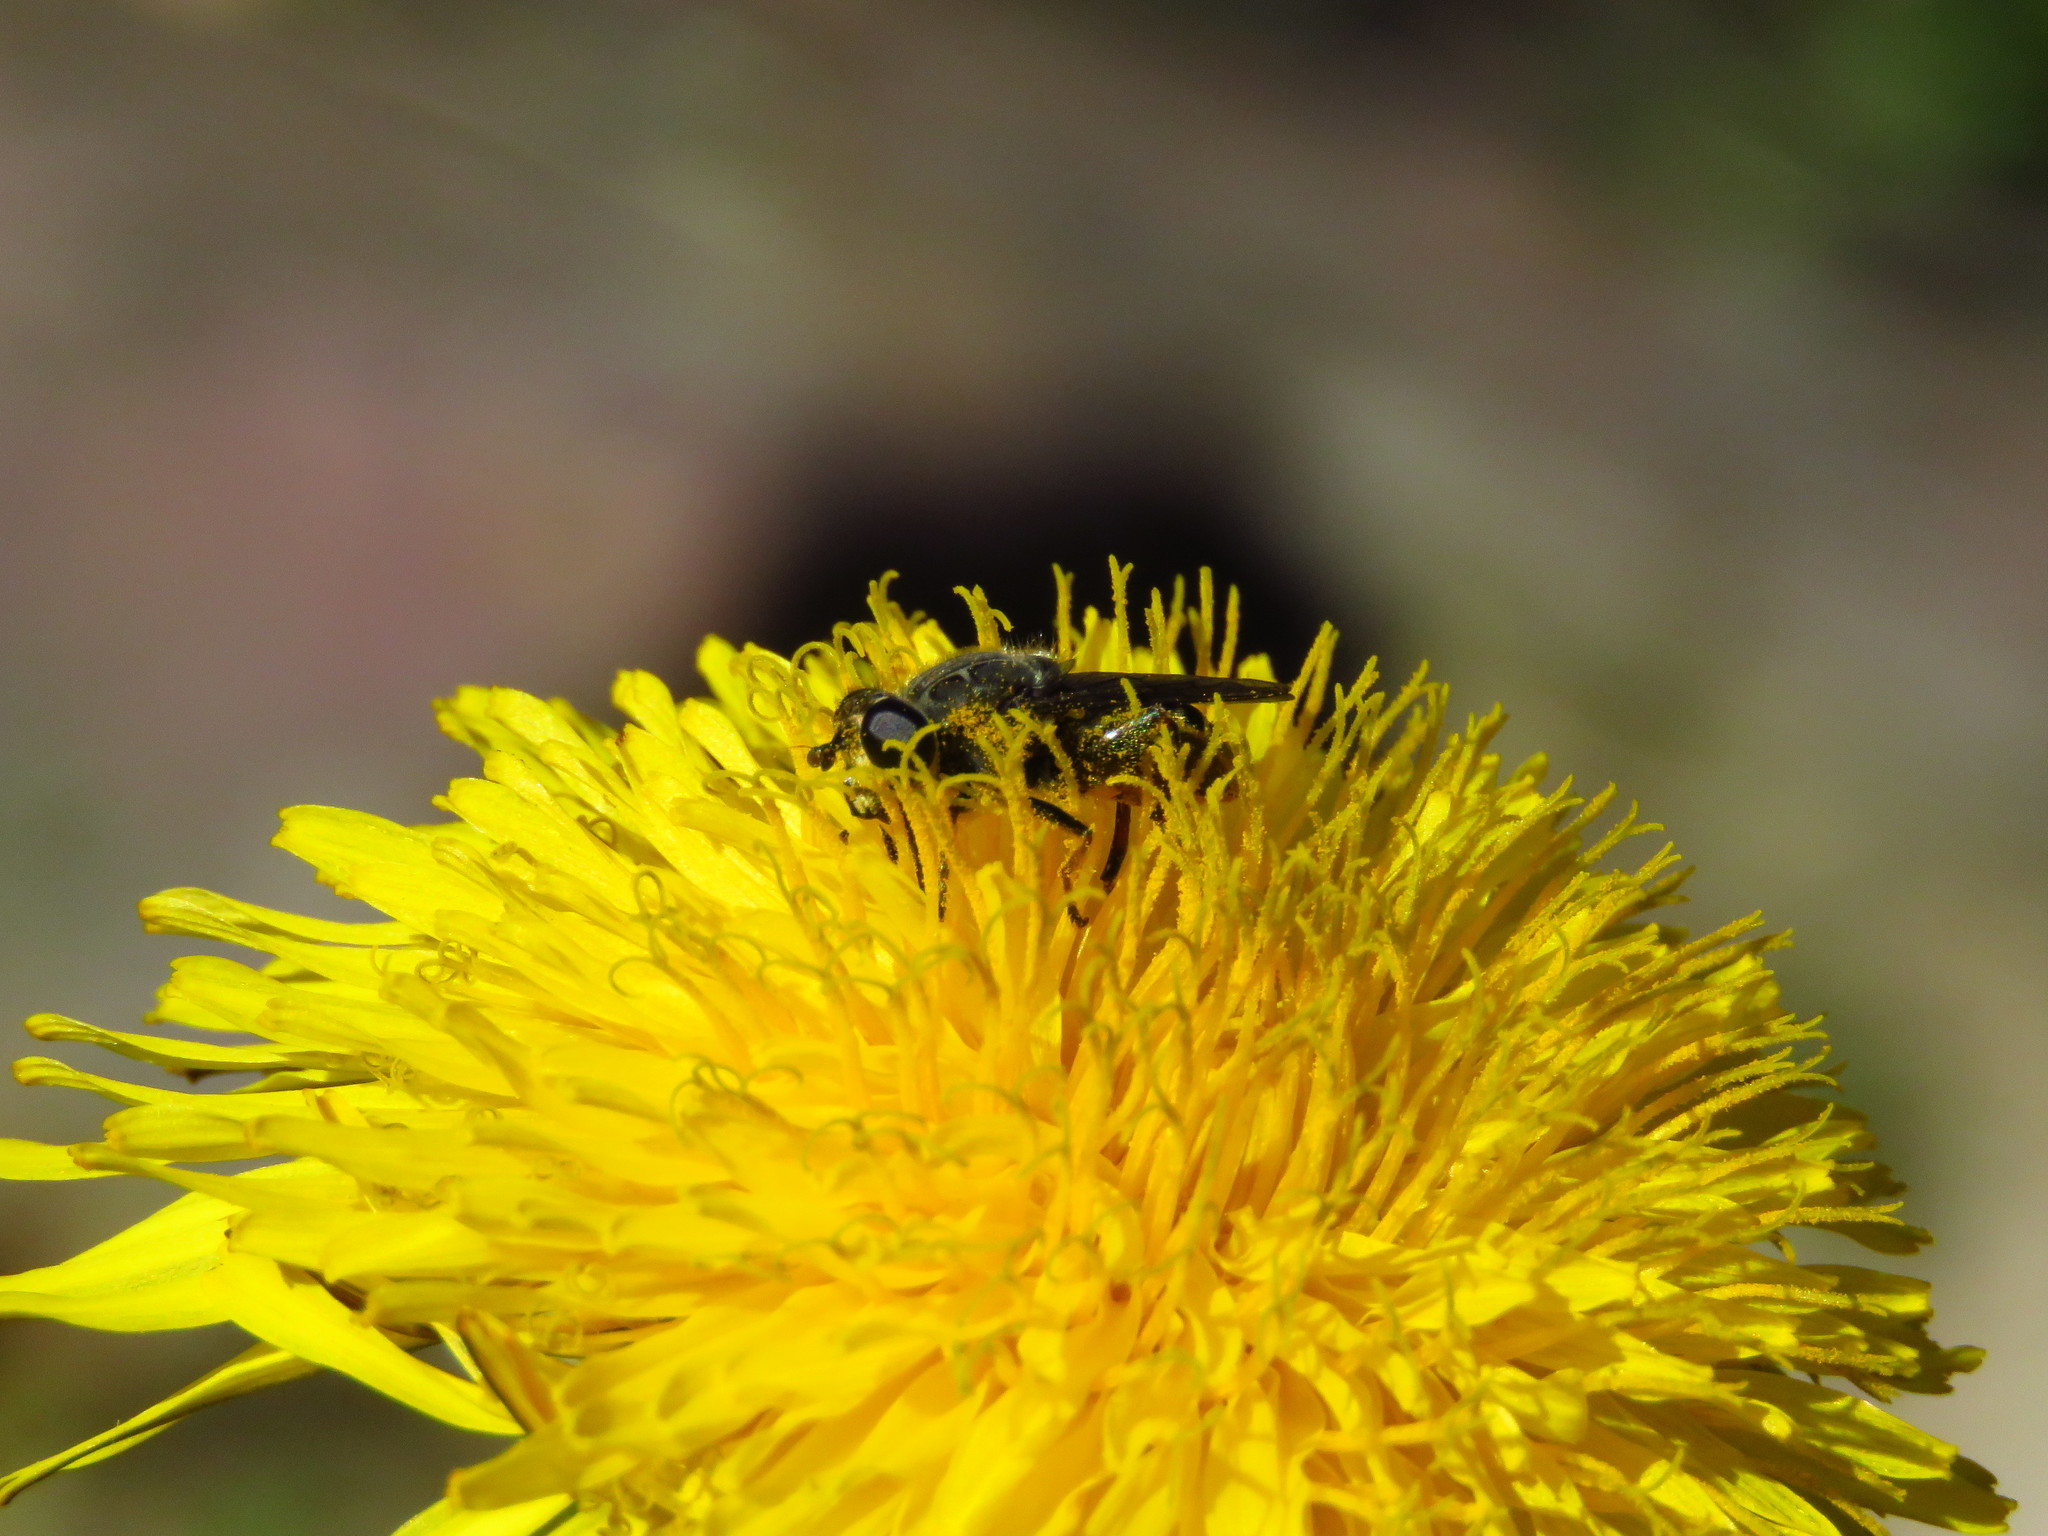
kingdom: Plantae
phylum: Tracheophyta
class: Magnoliopsida
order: Asterales
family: Asteraceae
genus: Taraxacum
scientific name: Taraxacum officinale
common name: Common dandelion
